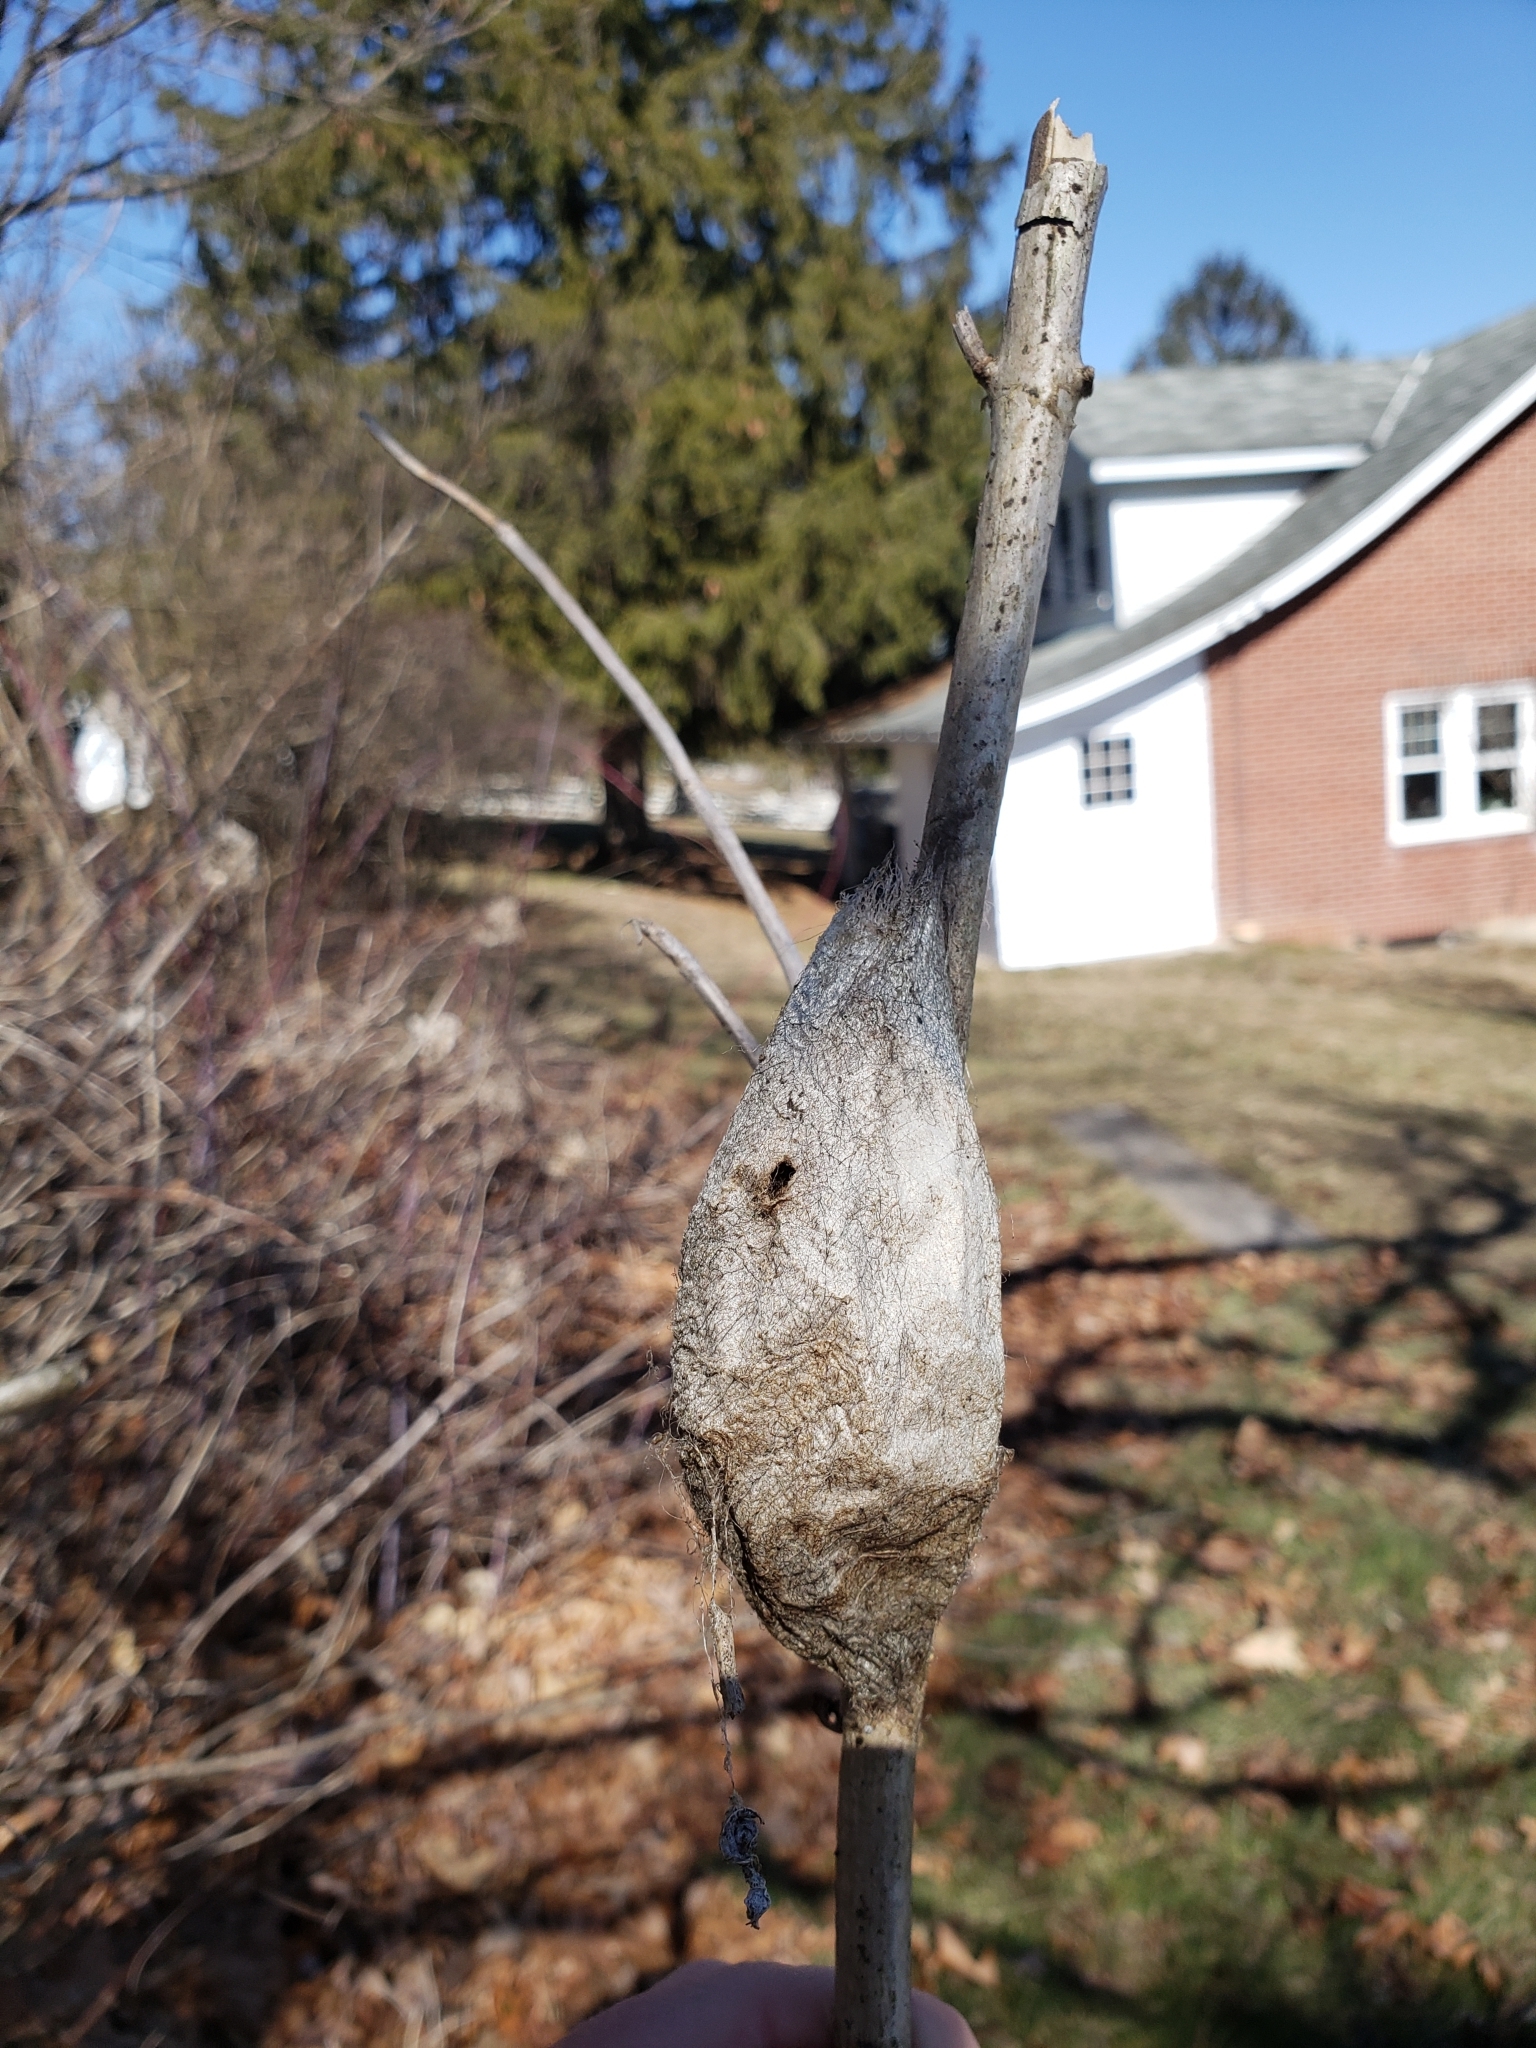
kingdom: Animalia
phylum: Arthropoda
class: Insecta
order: Lepidoptera
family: Saturniidae
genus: Hyalophora
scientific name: Hyalophora cecropia
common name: Cecropia silkmoth
